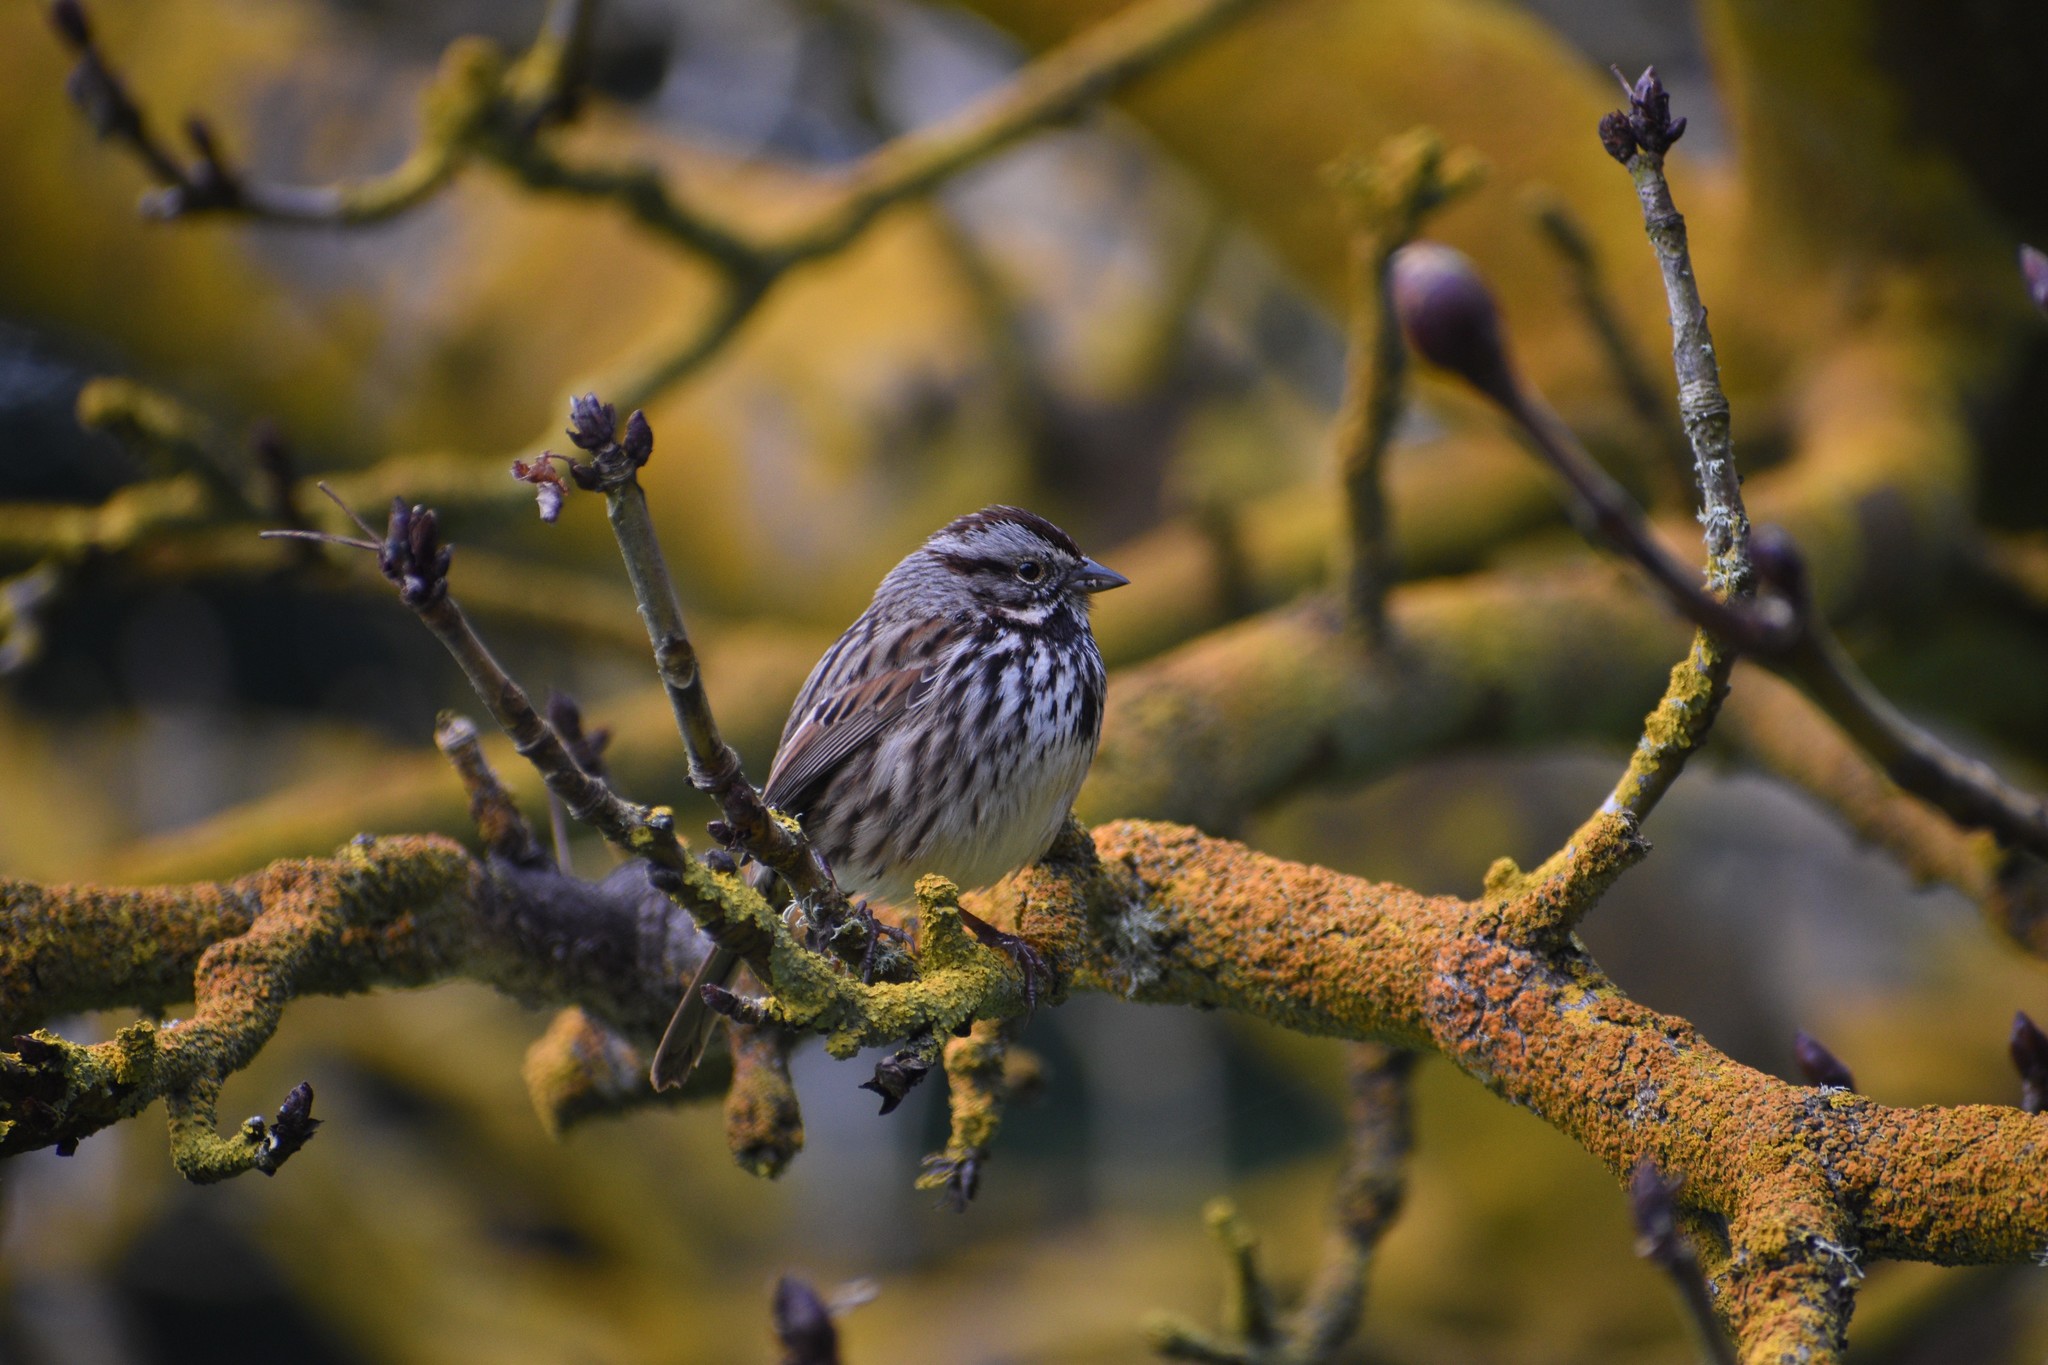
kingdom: Animalia
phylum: Chordata
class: Aves
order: Passeriformes
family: Passerellidae
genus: Melospiza
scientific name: Melospiza melodia
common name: Song sparrow
